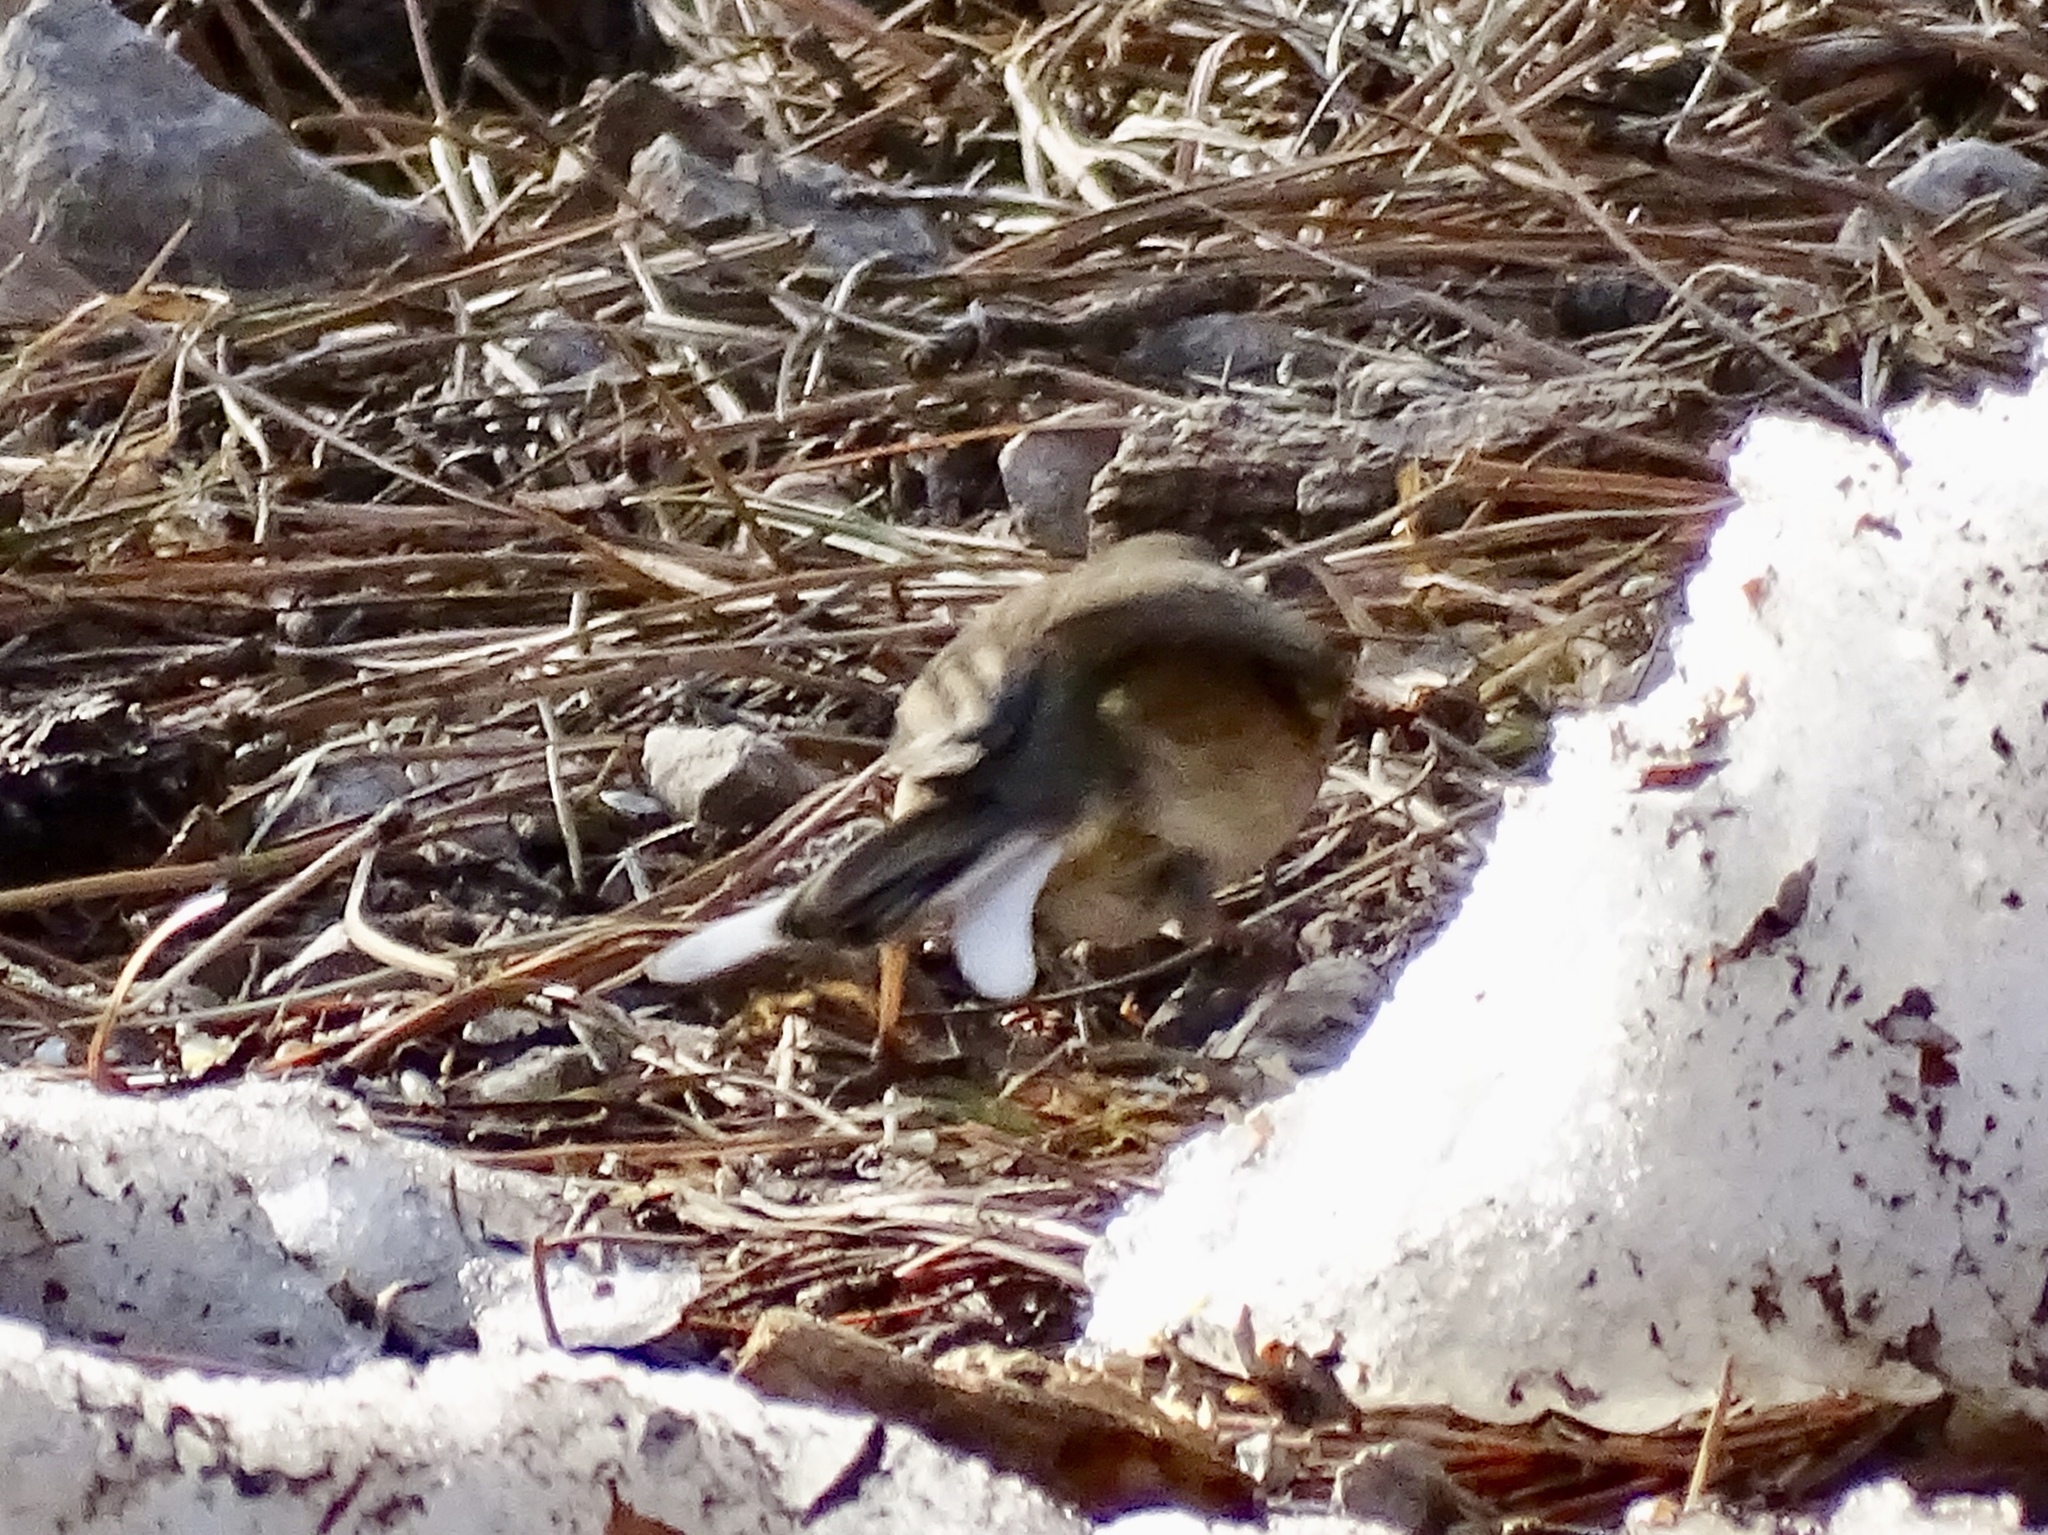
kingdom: Animalia
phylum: Chordata
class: Aves
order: Passeriformes
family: Passerellidae
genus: Junco
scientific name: Junco hyemalis
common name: Dark-eyed junco
